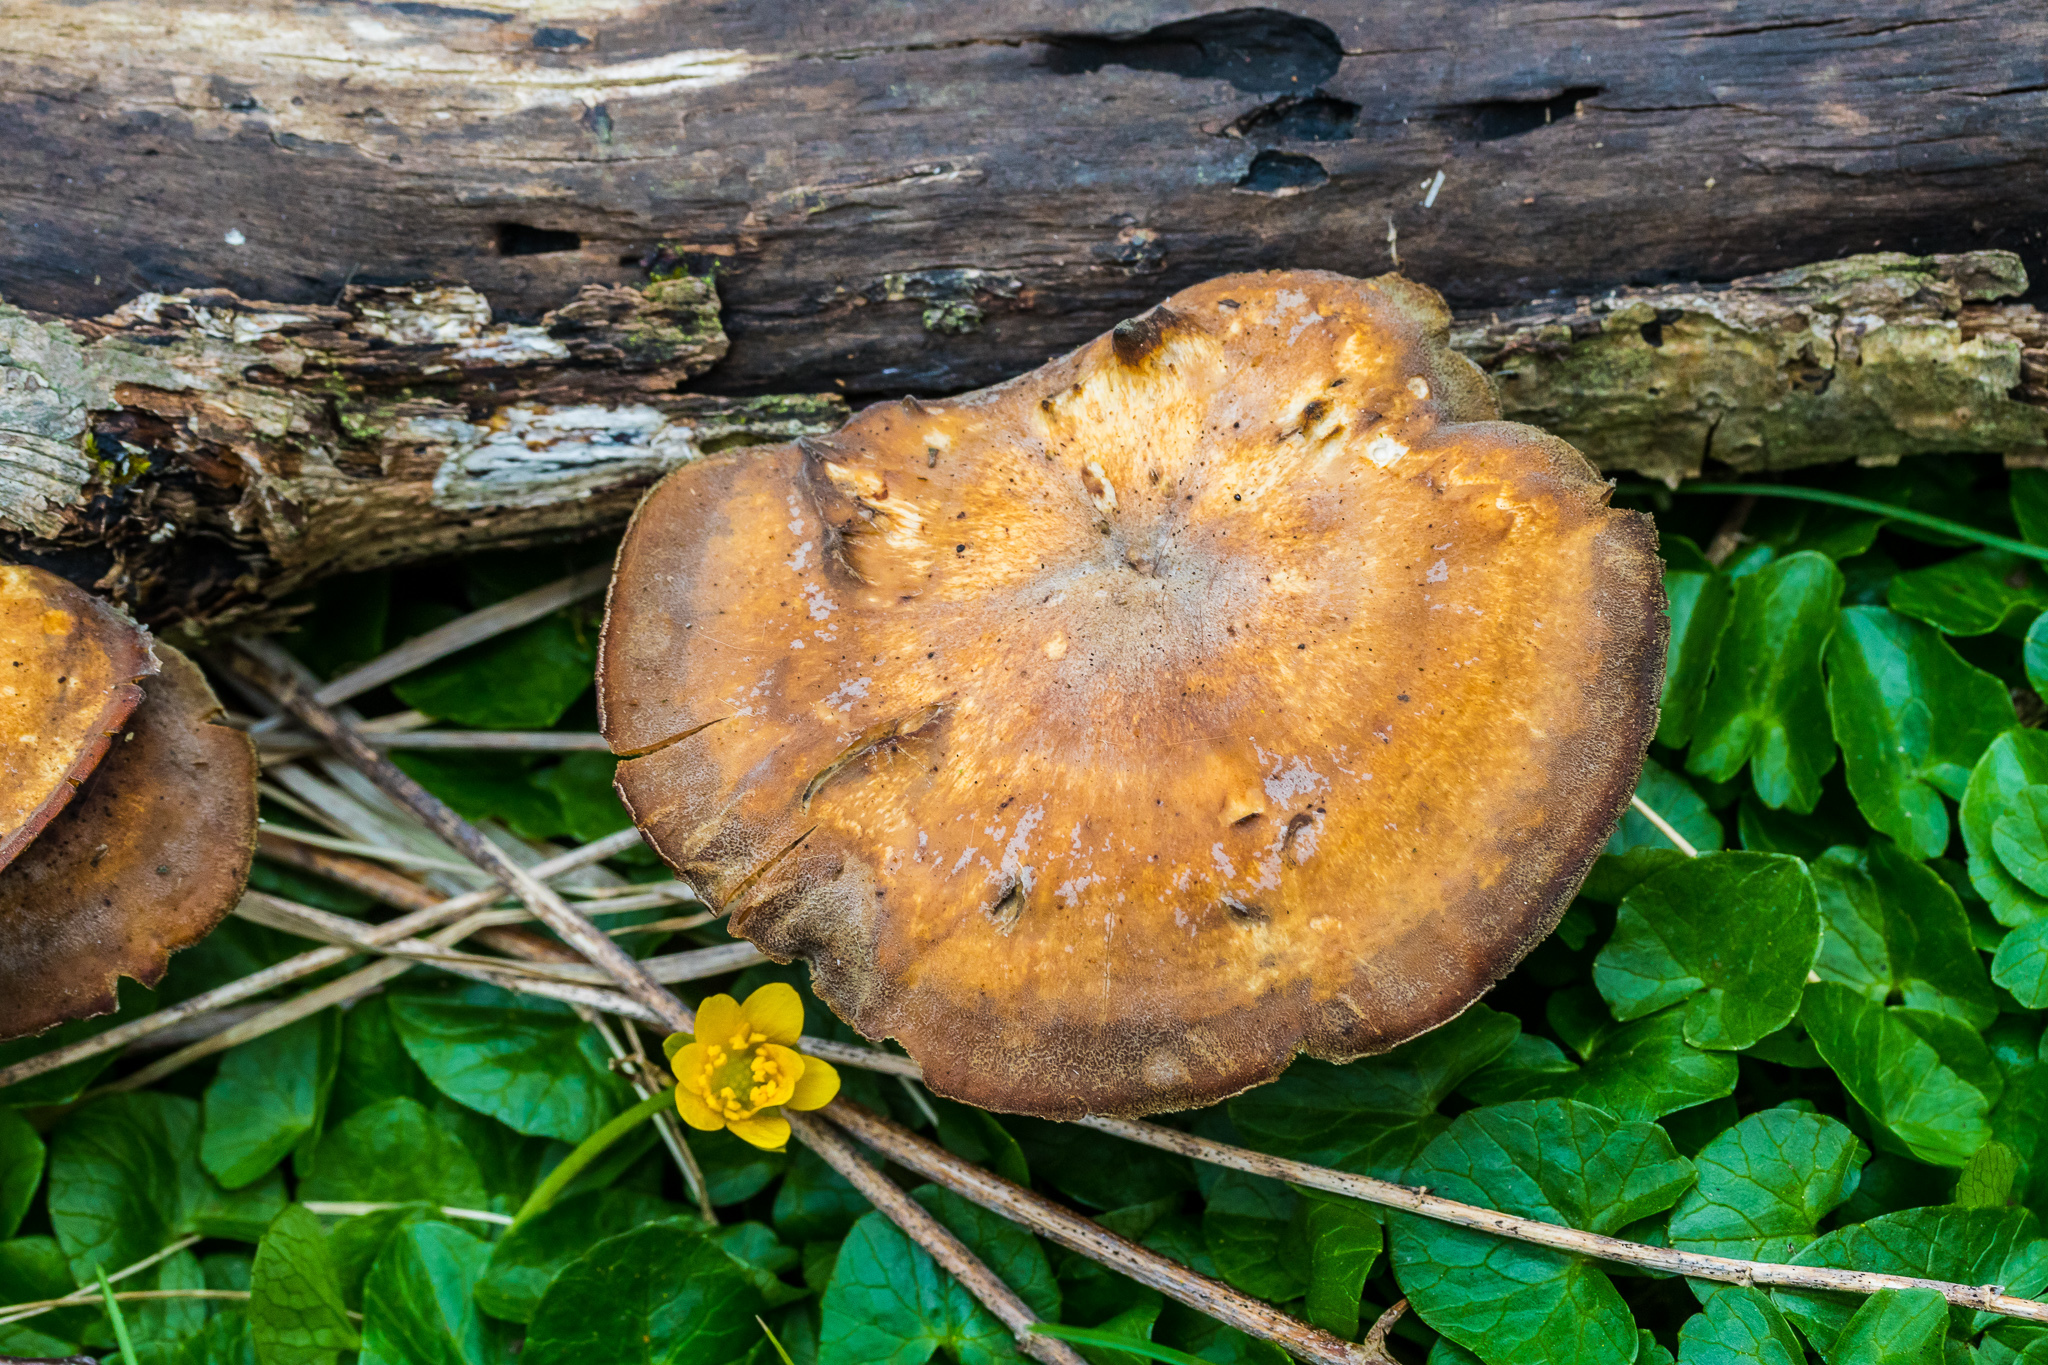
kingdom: Fungi
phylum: Basidiomycota
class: Agaricomycetes
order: Polyporales
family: Polyporaceae
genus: Cerioporus
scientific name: Cerioporus varius
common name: Elegant polypore
